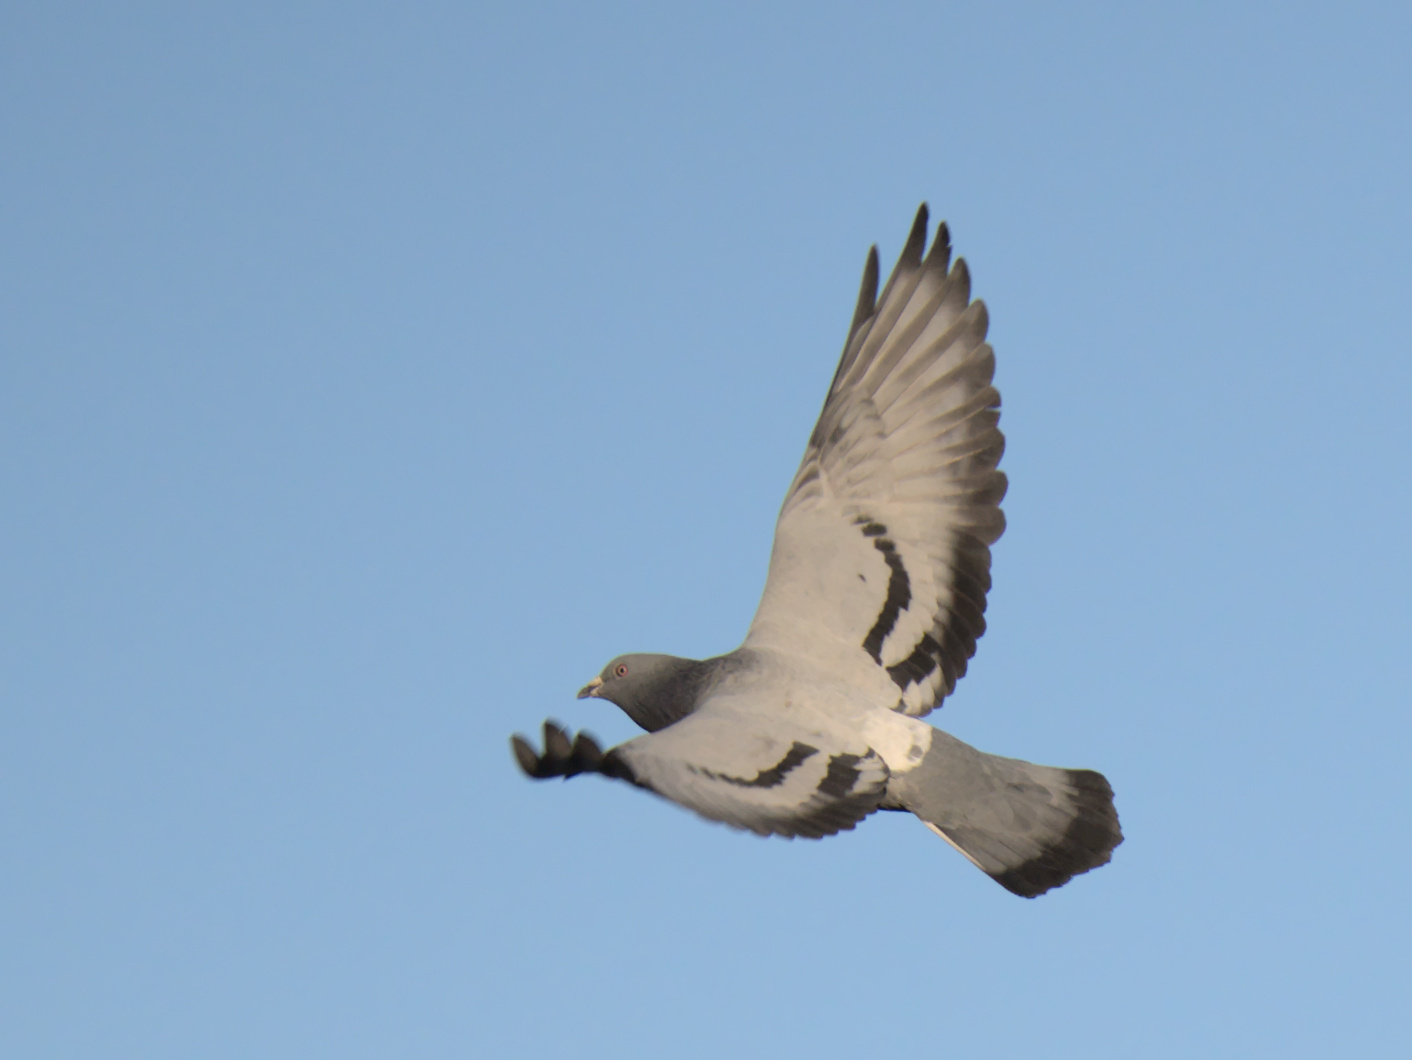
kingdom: Animalia
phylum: Chordata
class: Aves
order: Columbiformes
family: Columbidae
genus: Columba
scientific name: Columba livia
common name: Rock pigeon
